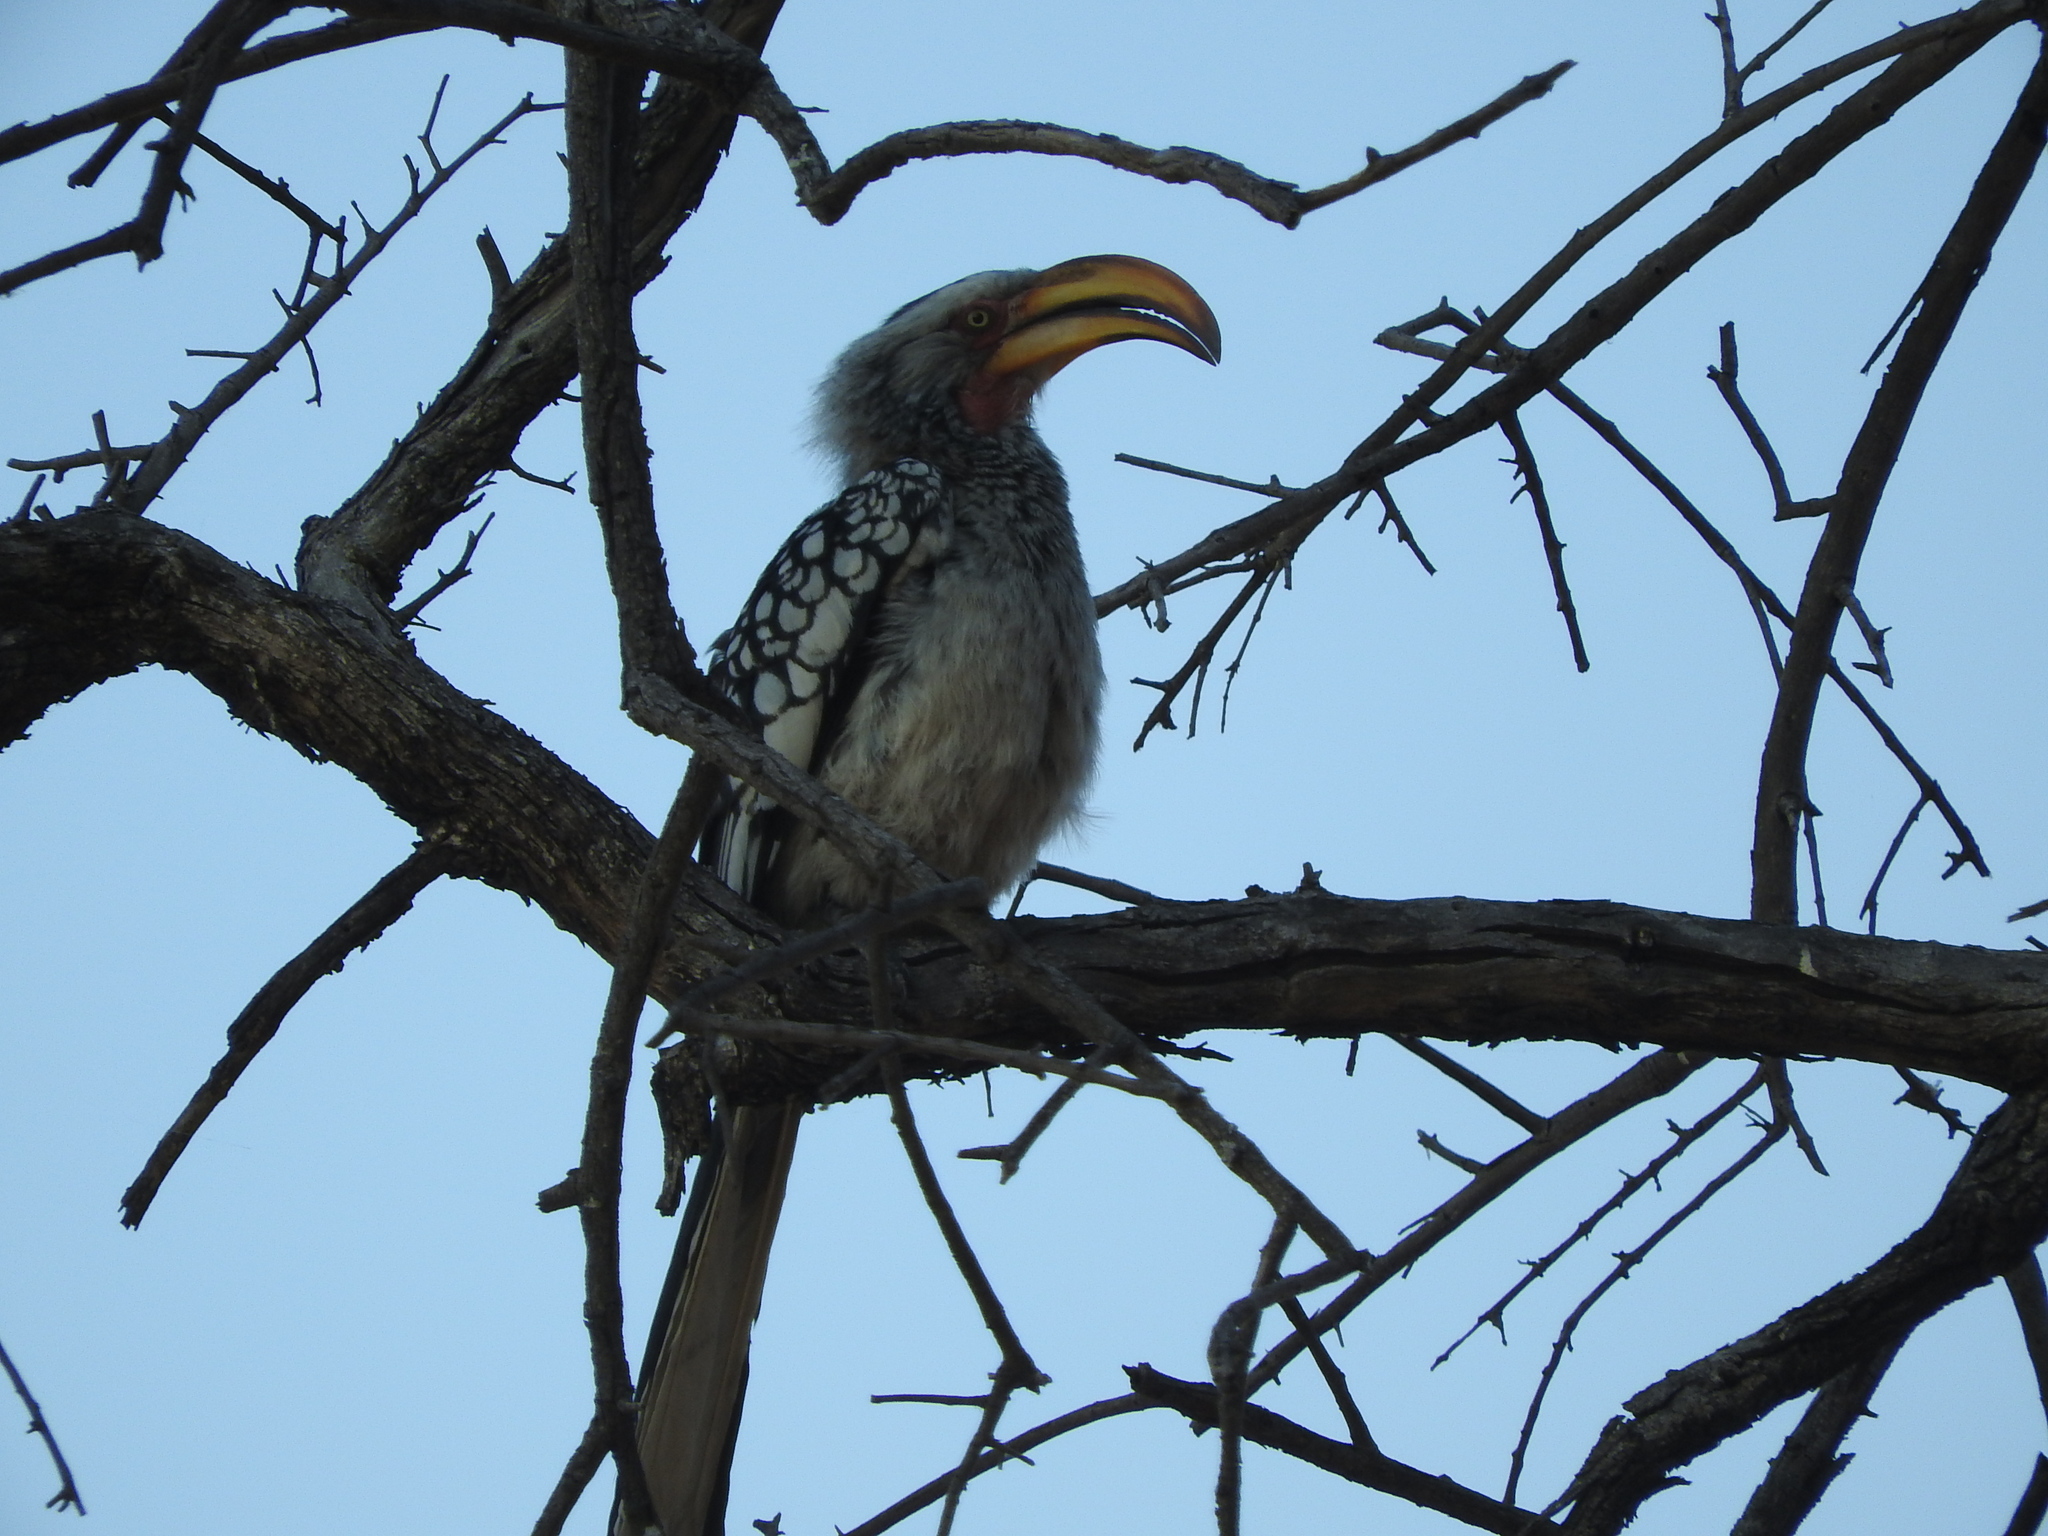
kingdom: Animalia
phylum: Chordata
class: Aves
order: Bucerotiformes
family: Bucerotidae
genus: Tockus
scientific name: Tockus leucomelas
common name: Southern yellow-billed hornbill
